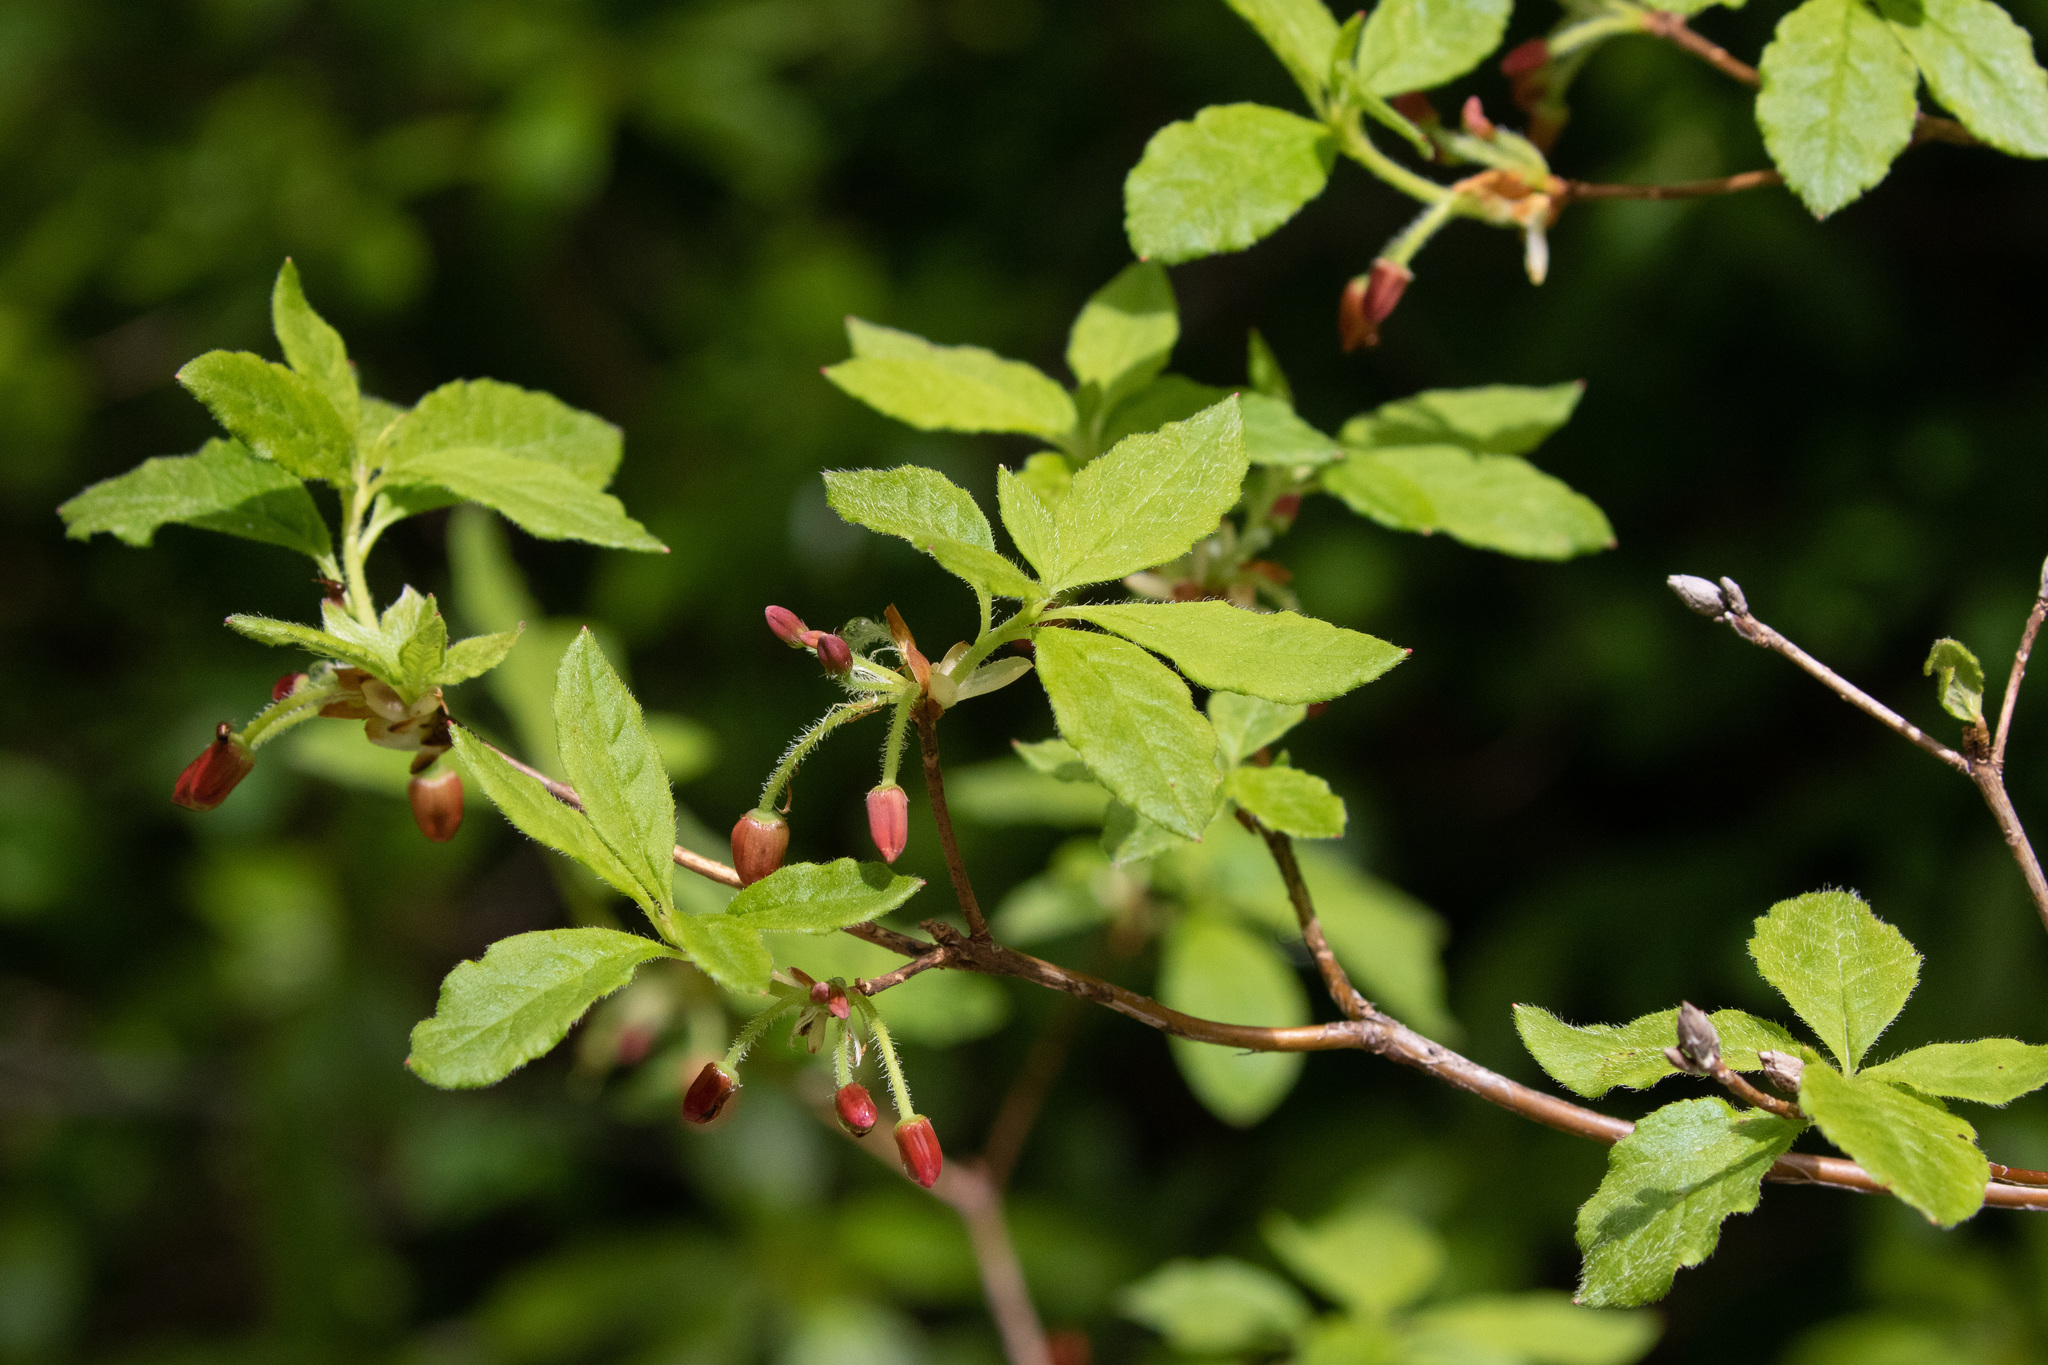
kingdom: Plantae
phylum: Tracheophyta
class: Magnoliopsida
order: Ericales
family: Ericaceae
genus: Rhododendron
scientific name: Rhododendron menziesii
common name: Pacific menziesia
